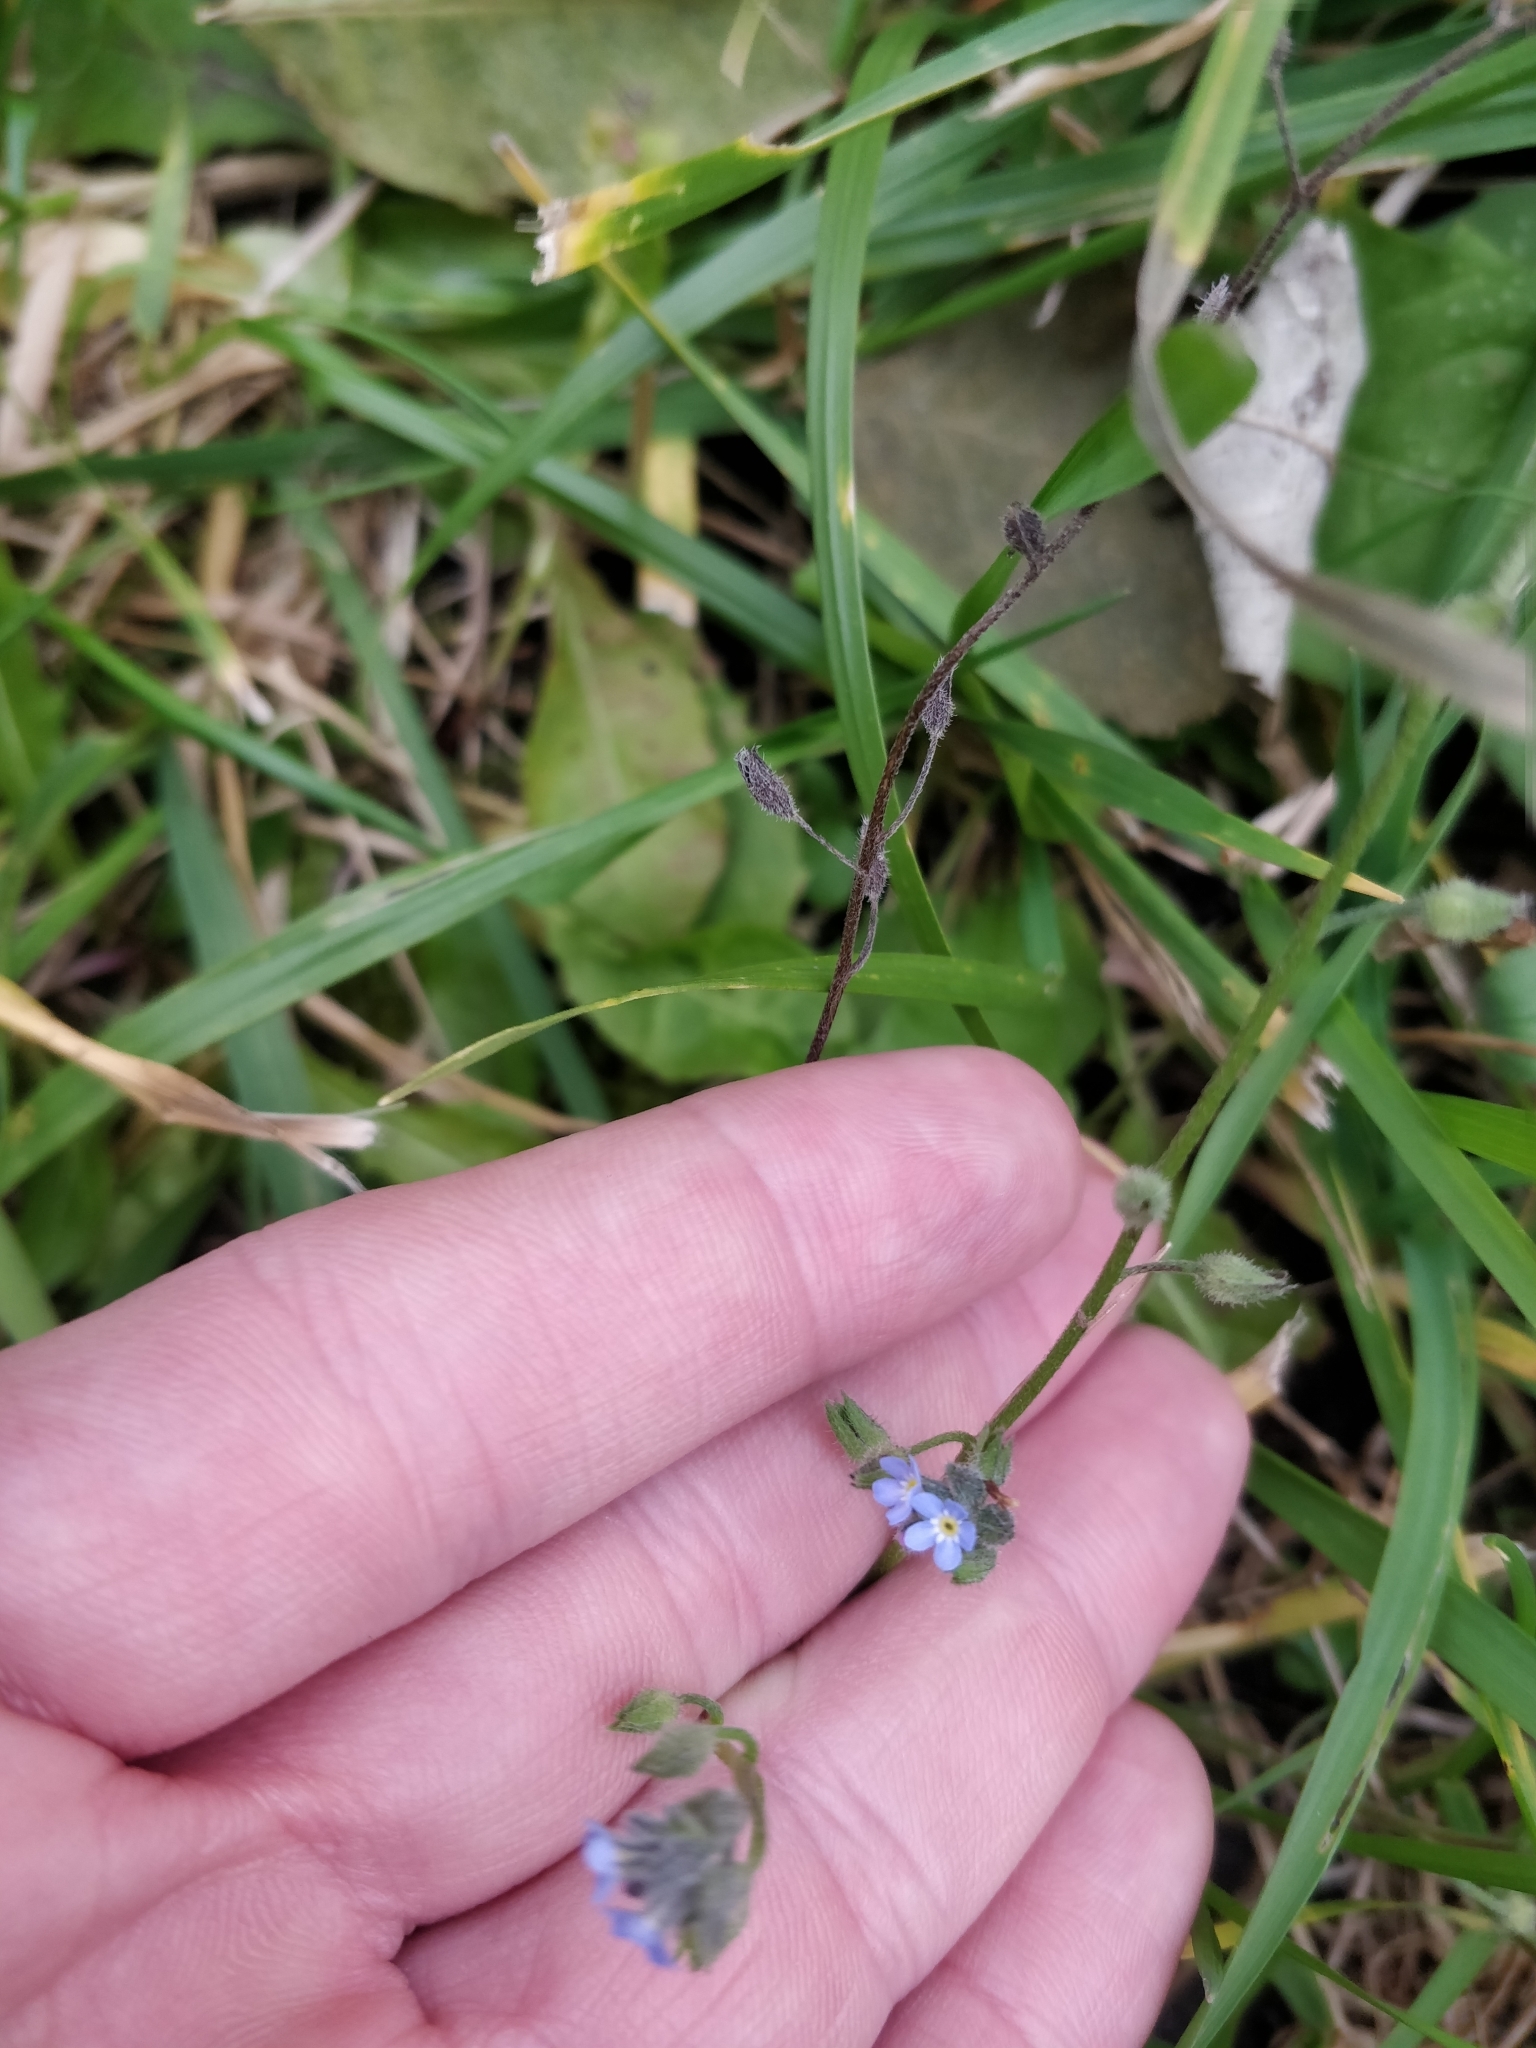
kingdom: Plantae
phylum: Tracheophyta
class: Magnoliopsida
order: Boraginales
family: Boraginaceae
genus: Myosotis
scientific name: Myosotis arvensis
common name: Field forget-me-not
